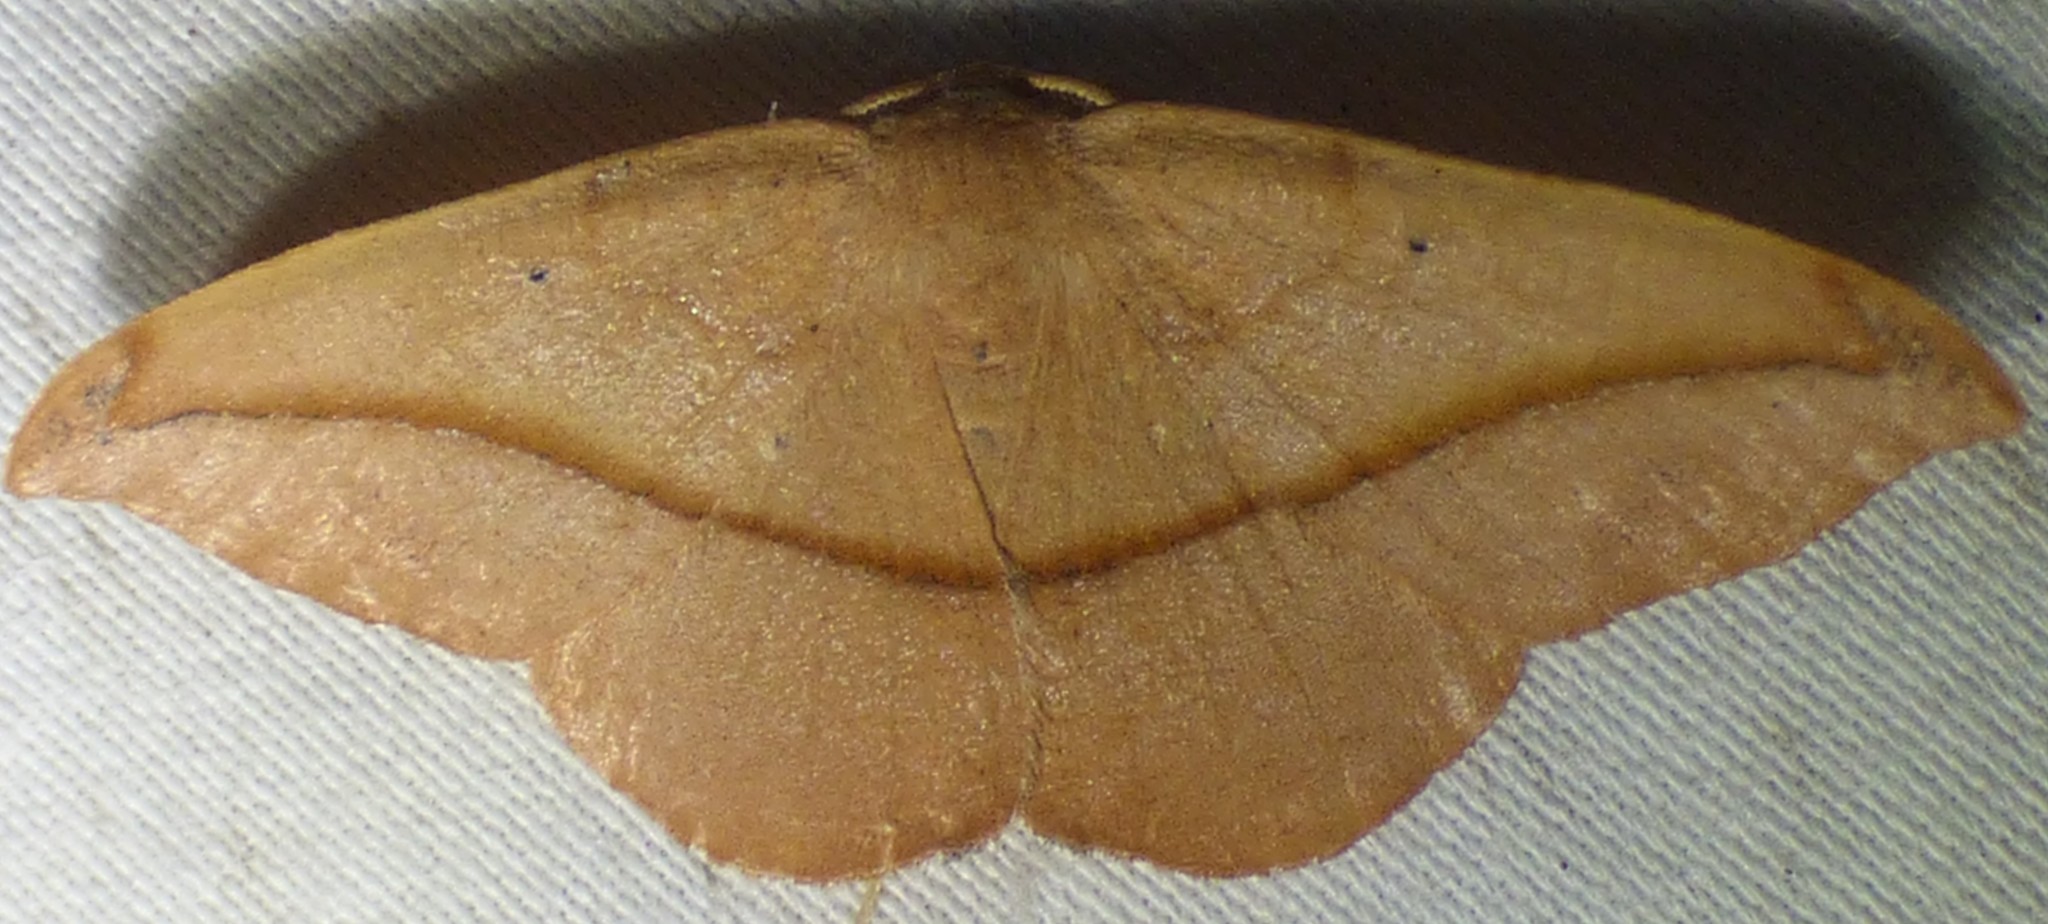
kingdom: Animalia
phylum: Arthropoda
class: Insecta
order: Lepidoptera
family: Geometridae
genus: Patalene
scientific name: Patalene olyzonaria
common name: Juniper geometer moth
